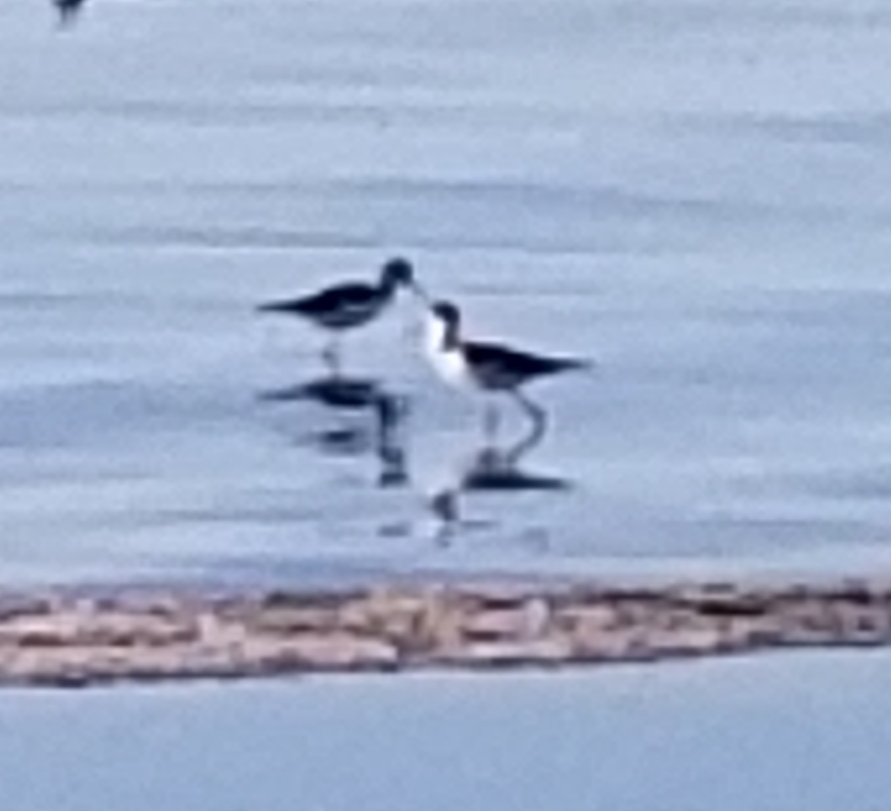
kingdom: Animalia
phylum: Chordata
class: Aves
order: Charadriiformes
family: Recurvirostridae
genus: Himantopus
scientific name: Himantopus mexicanus
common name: Black-necked stilt
